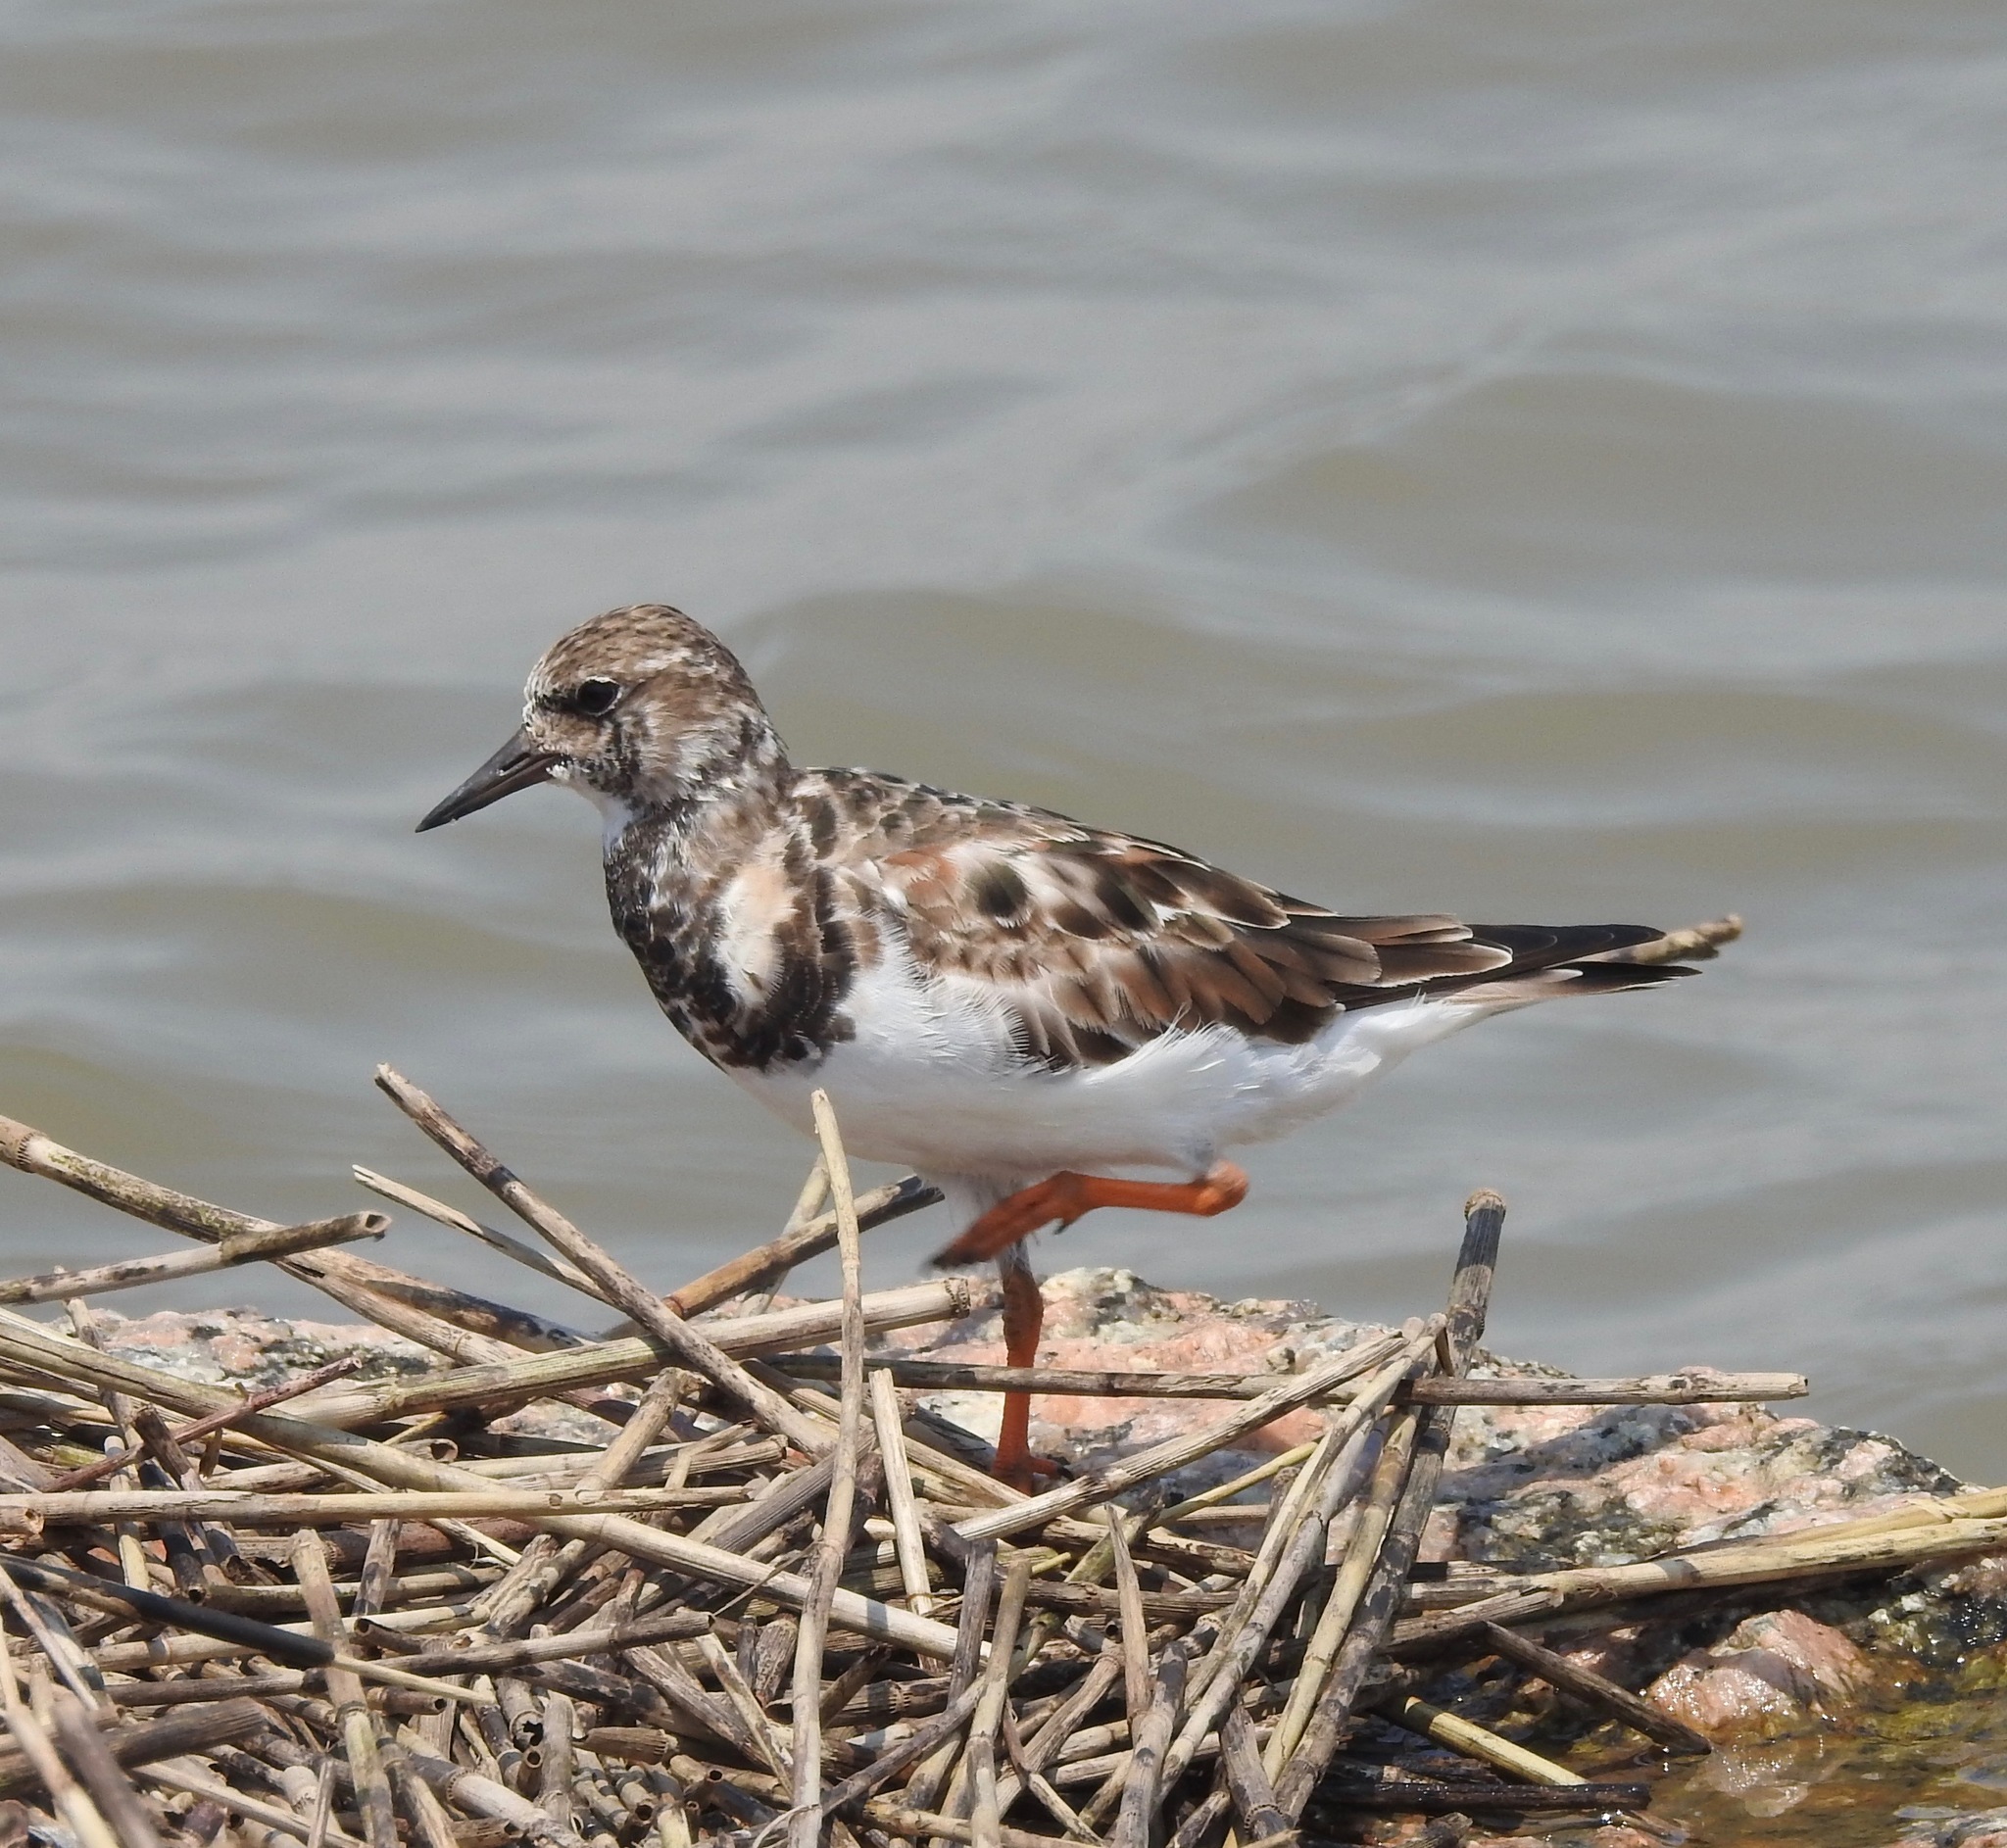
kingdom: Animalia
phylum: Chordata
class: Aves
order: Charadriiformes
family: Scolopacidae
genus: Arenaria
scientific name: Arenaria interpres
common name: Ruddy turnstone
